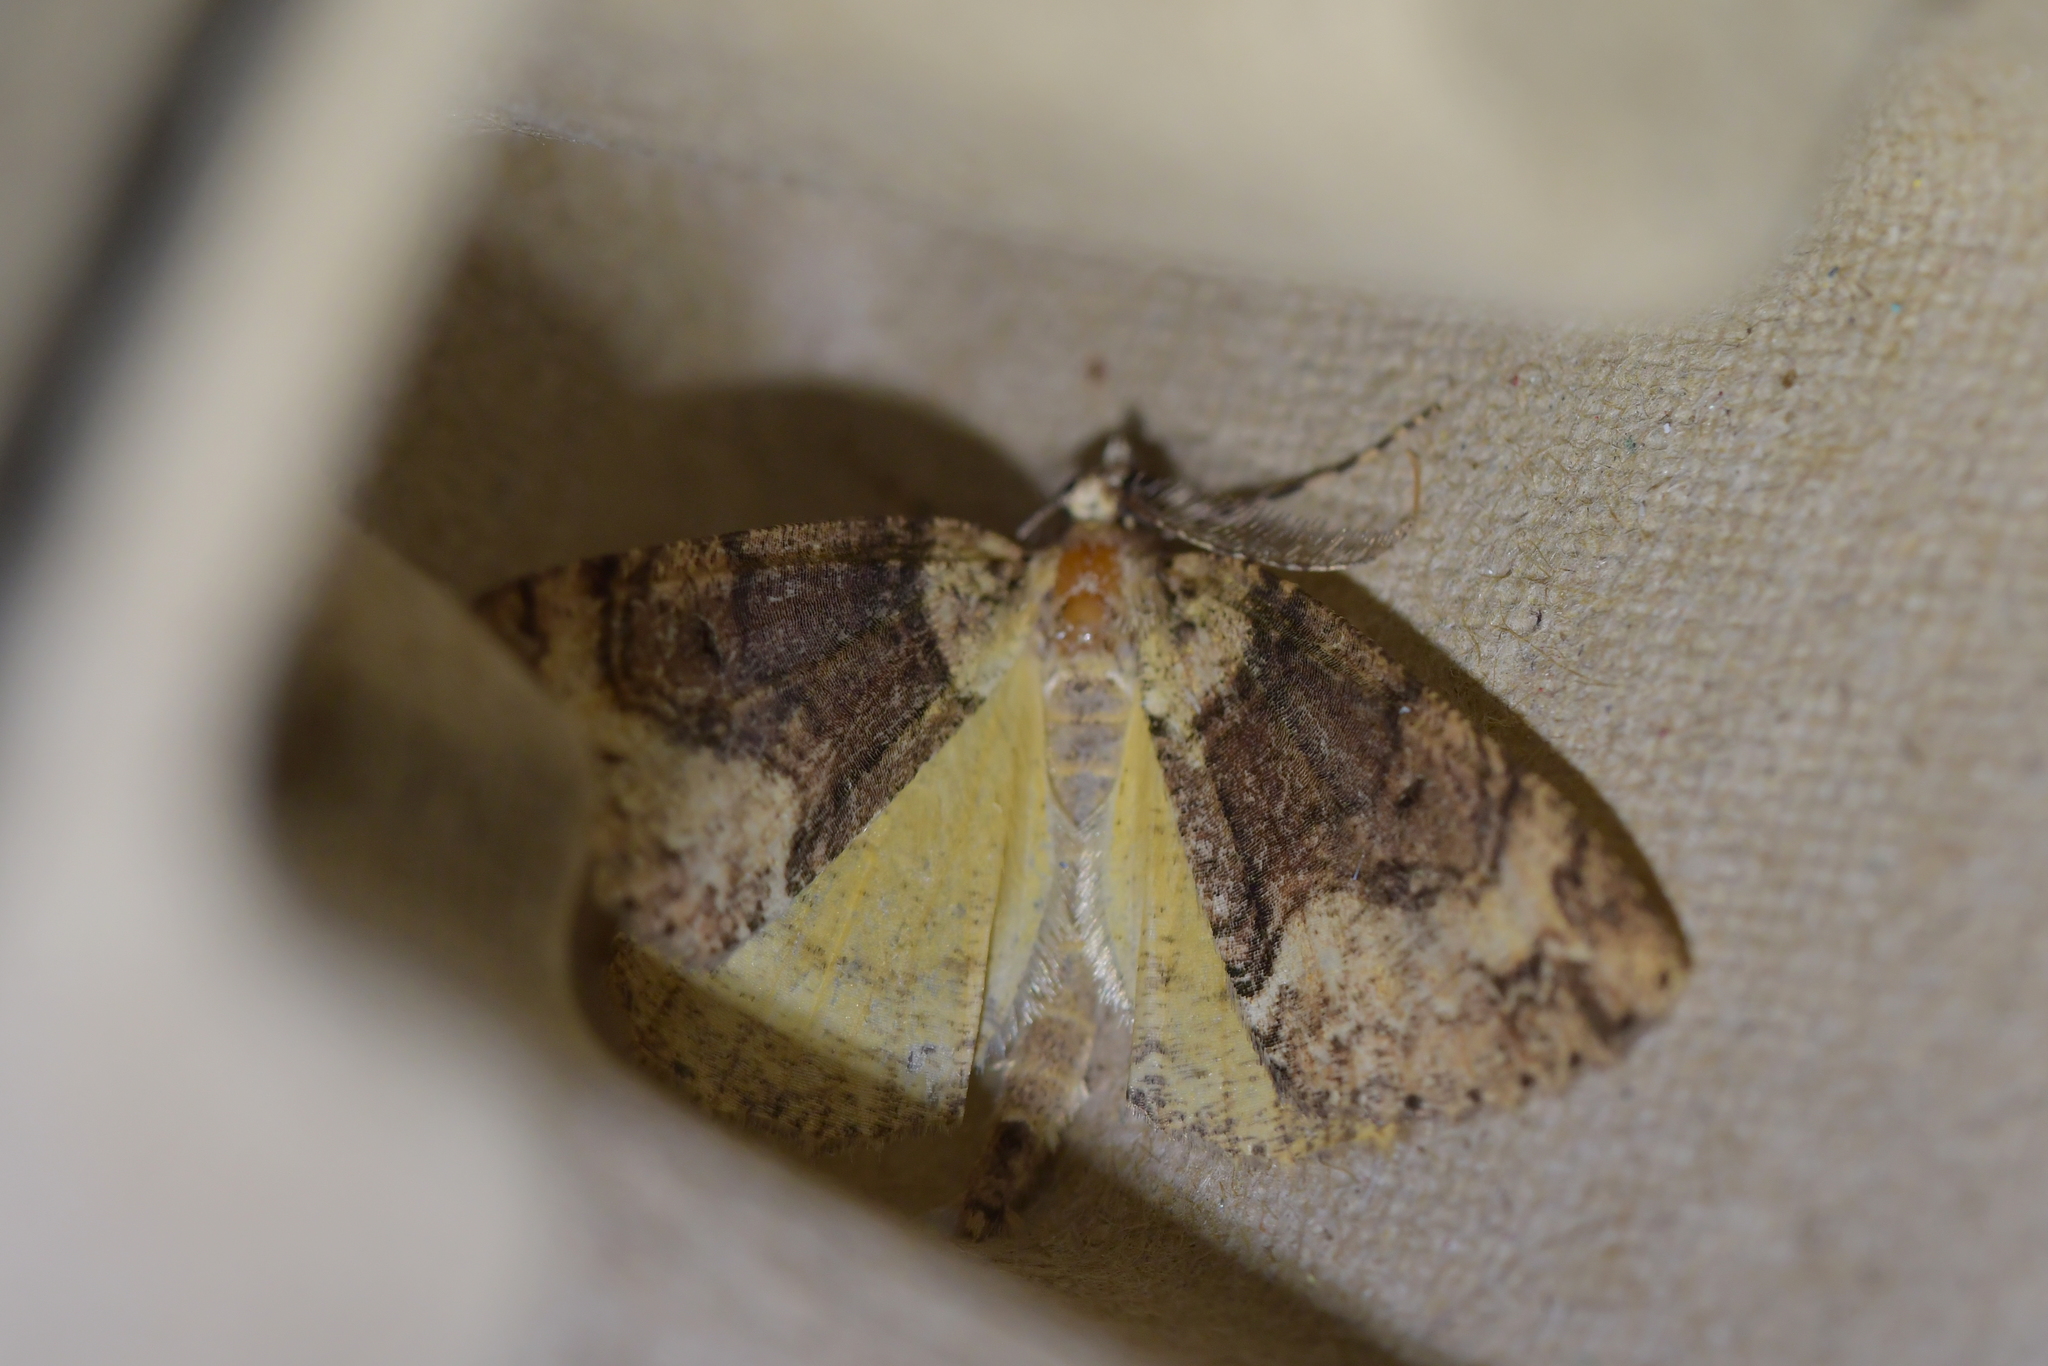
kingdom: Animalia
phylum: Arthropoda
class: Insecta
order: Lepidoptera
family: Geometridae
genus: Pseudocoremia
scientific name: Pseudocoremia suavis
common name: Common forest looper
